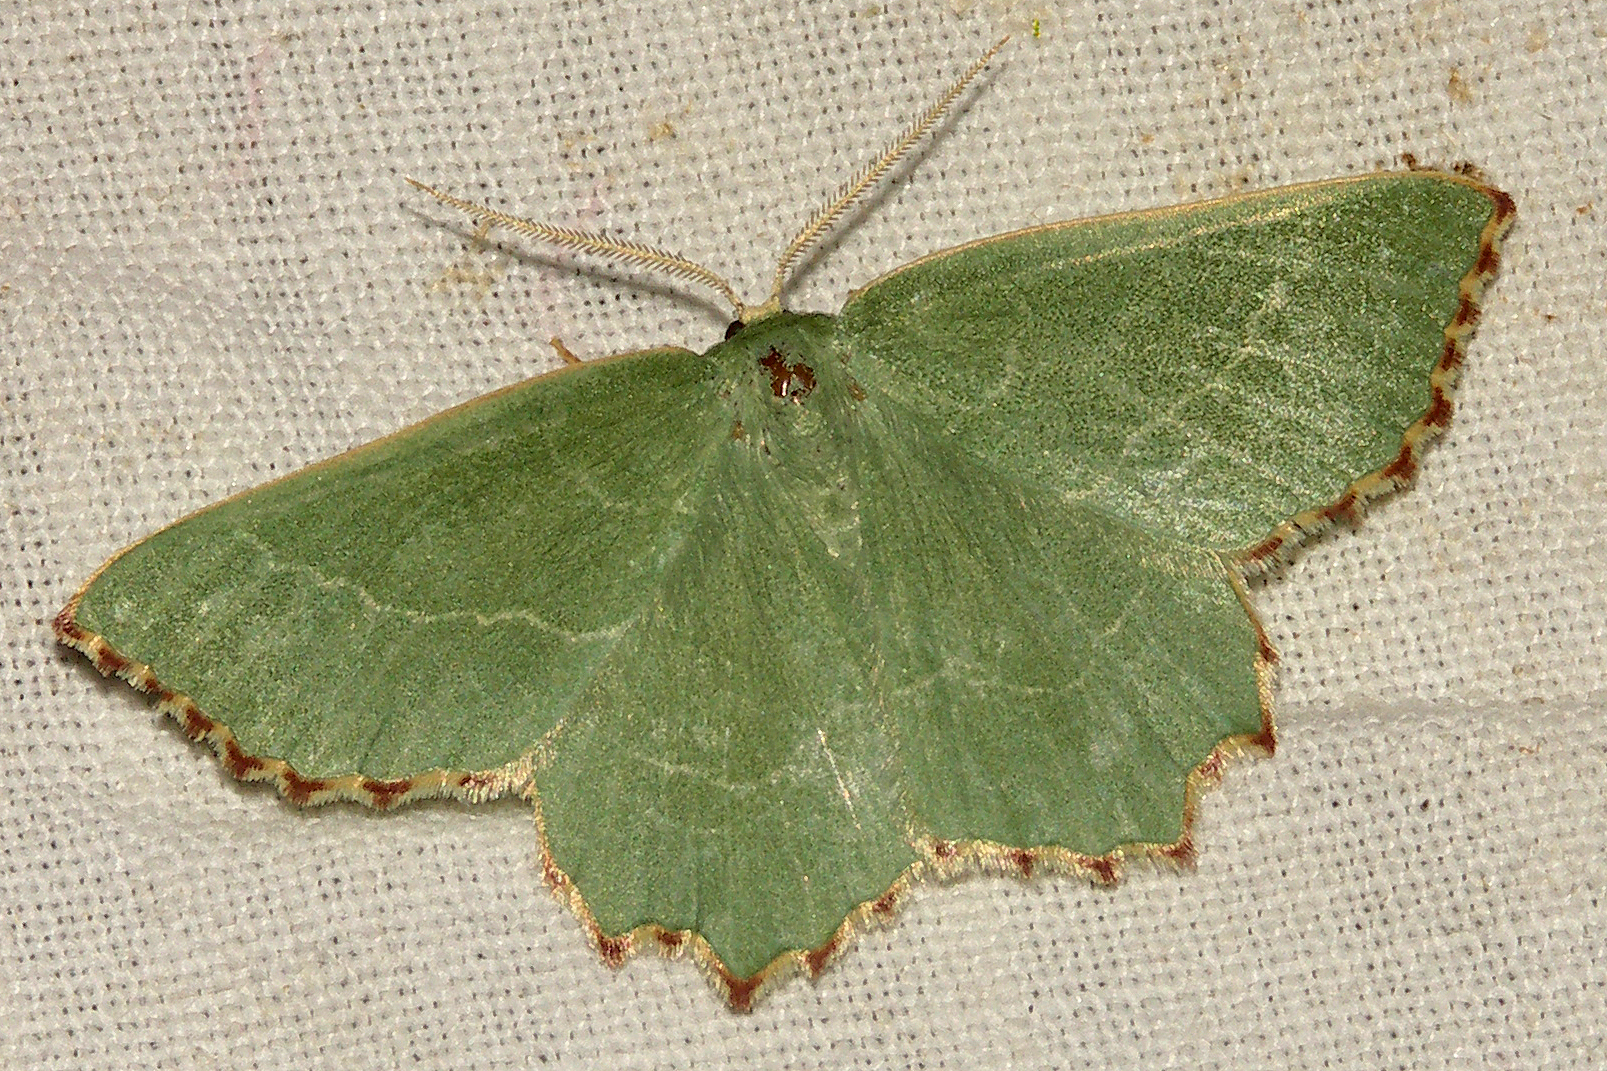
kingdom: Animalia
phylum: Arthropoda
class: Insecta
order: Lepidoptera
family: Geometridae
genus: Thalera
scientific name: Thalera fimbrialis
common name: Sussex emerald
